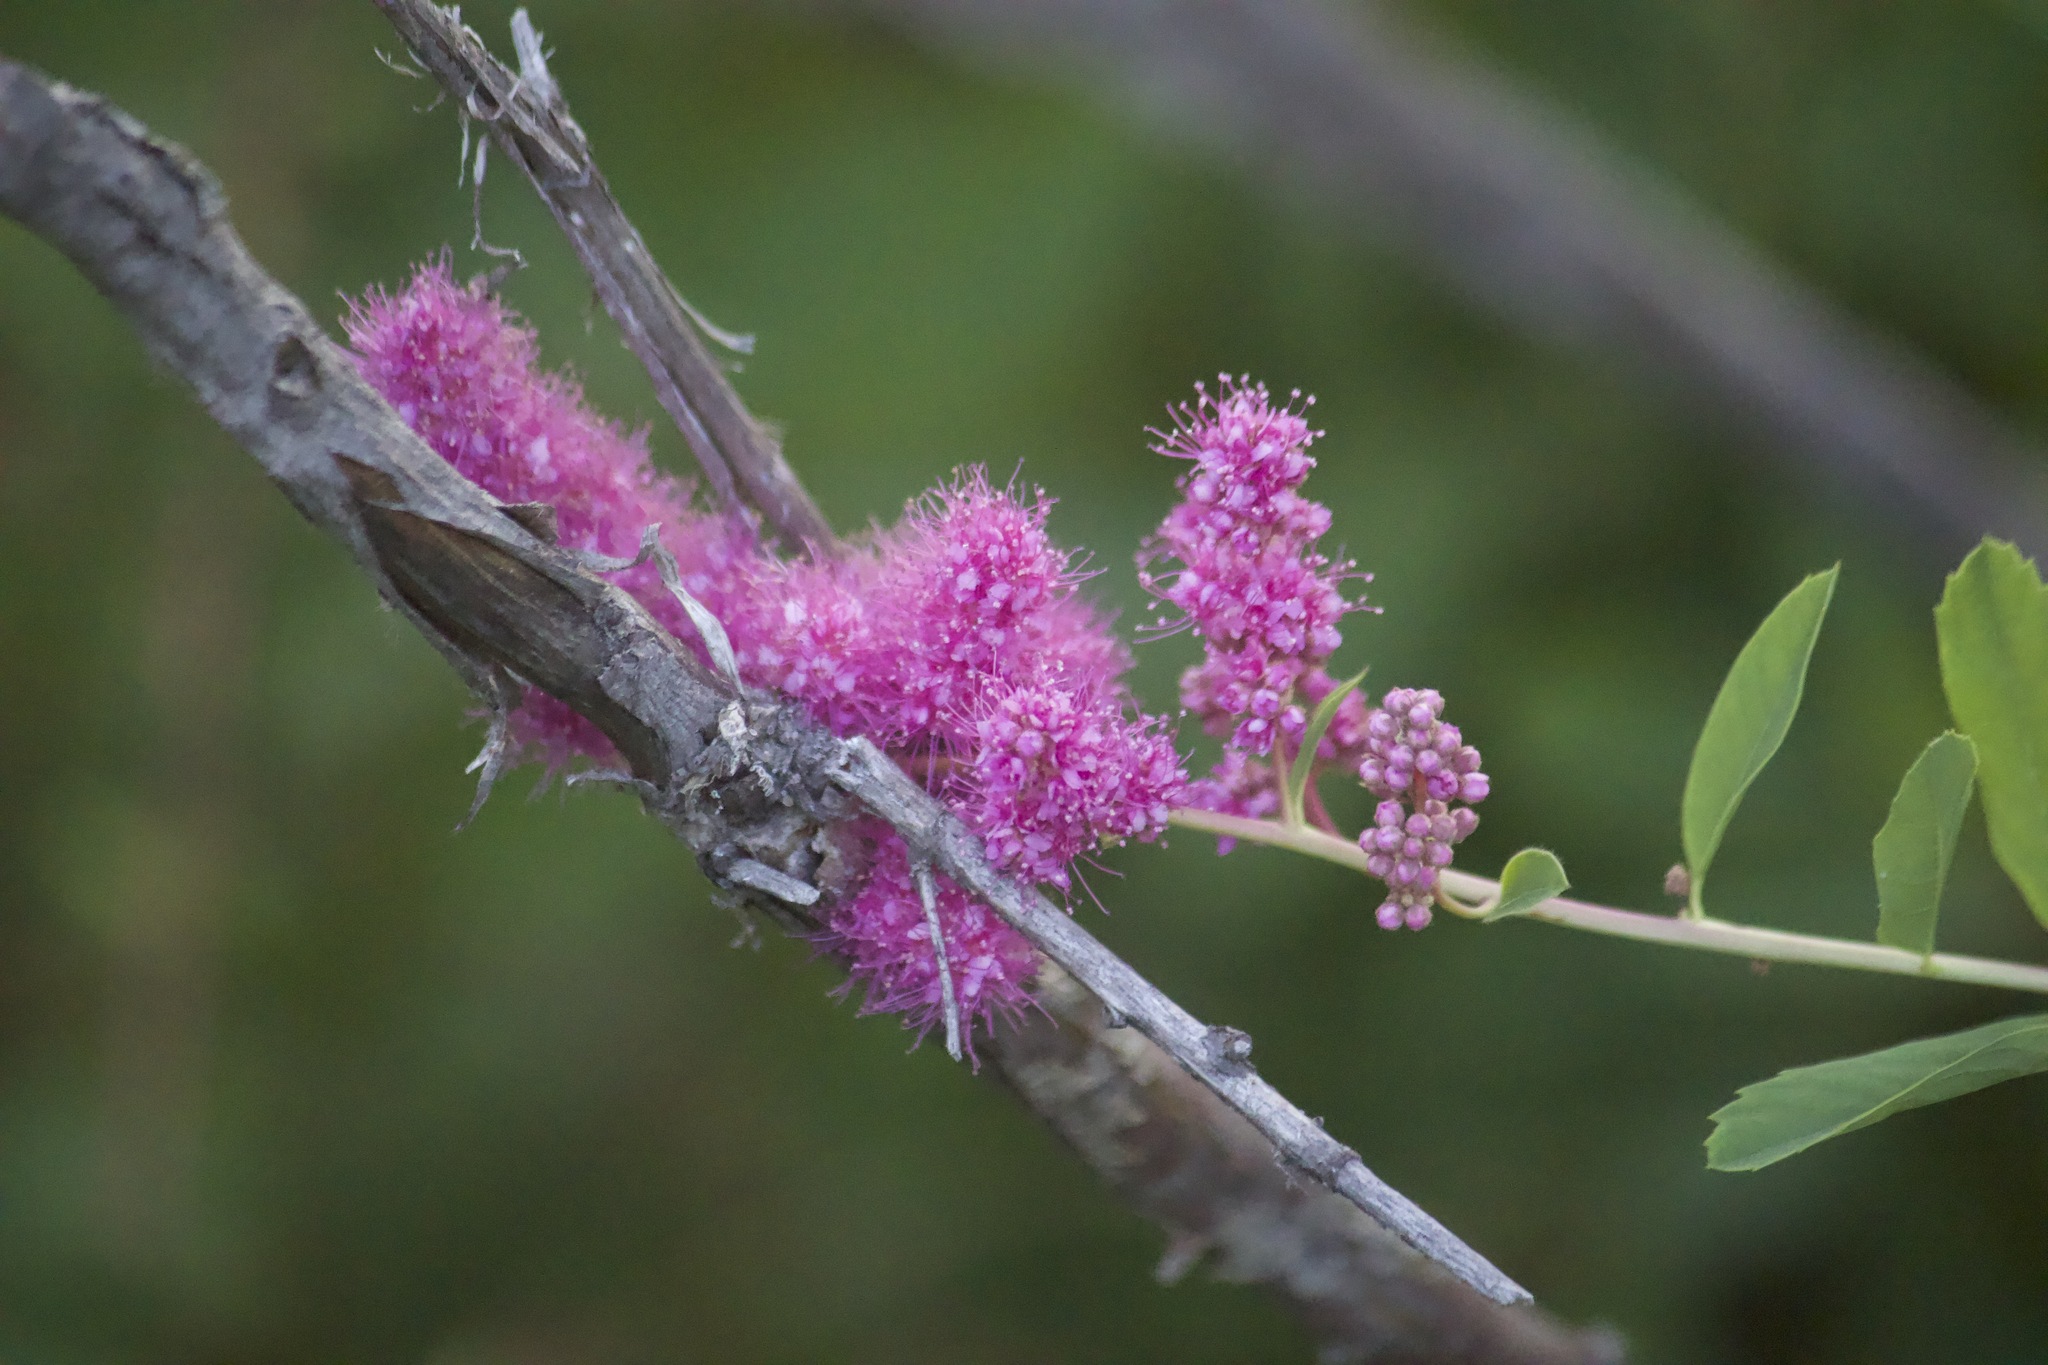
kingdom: Plantae
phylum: Tracheophyta
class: Magnoliopsida
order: Rosales
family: Rosaceae
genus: Spiraea
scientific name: Spiraea douglasii
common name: Steeplebush
